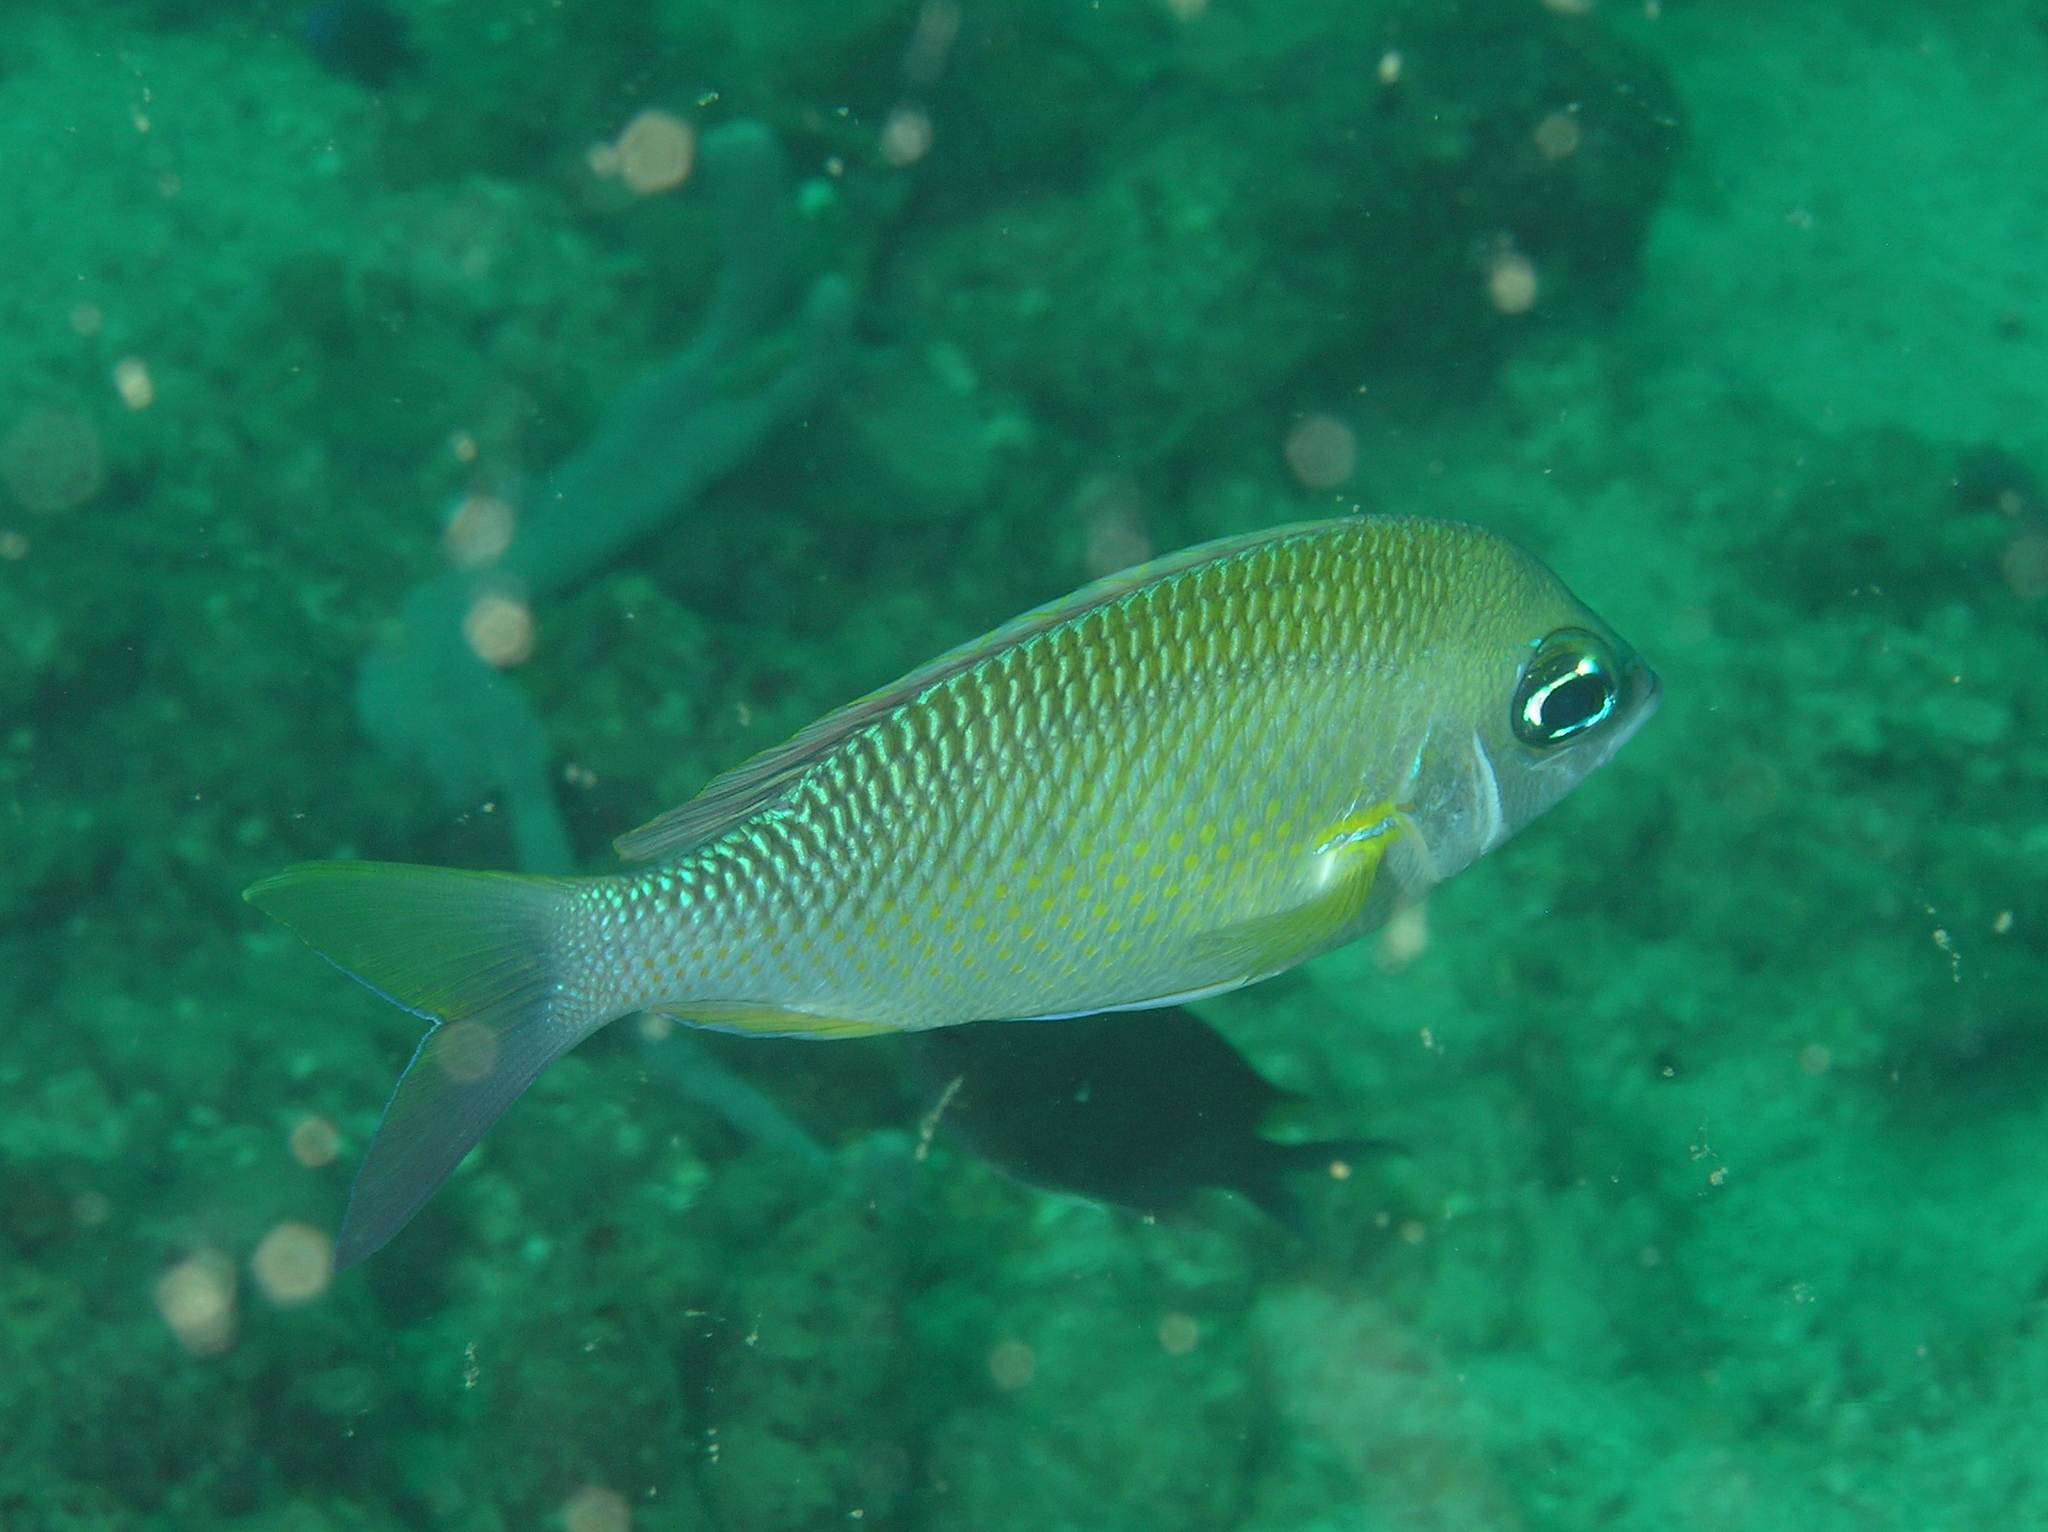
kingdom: Animalia
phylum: Chordata
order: Perciformes
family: Nemipteridae
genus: Scolopsis
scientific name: Scolopsis margaritifera
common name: Pearly monocle bream
